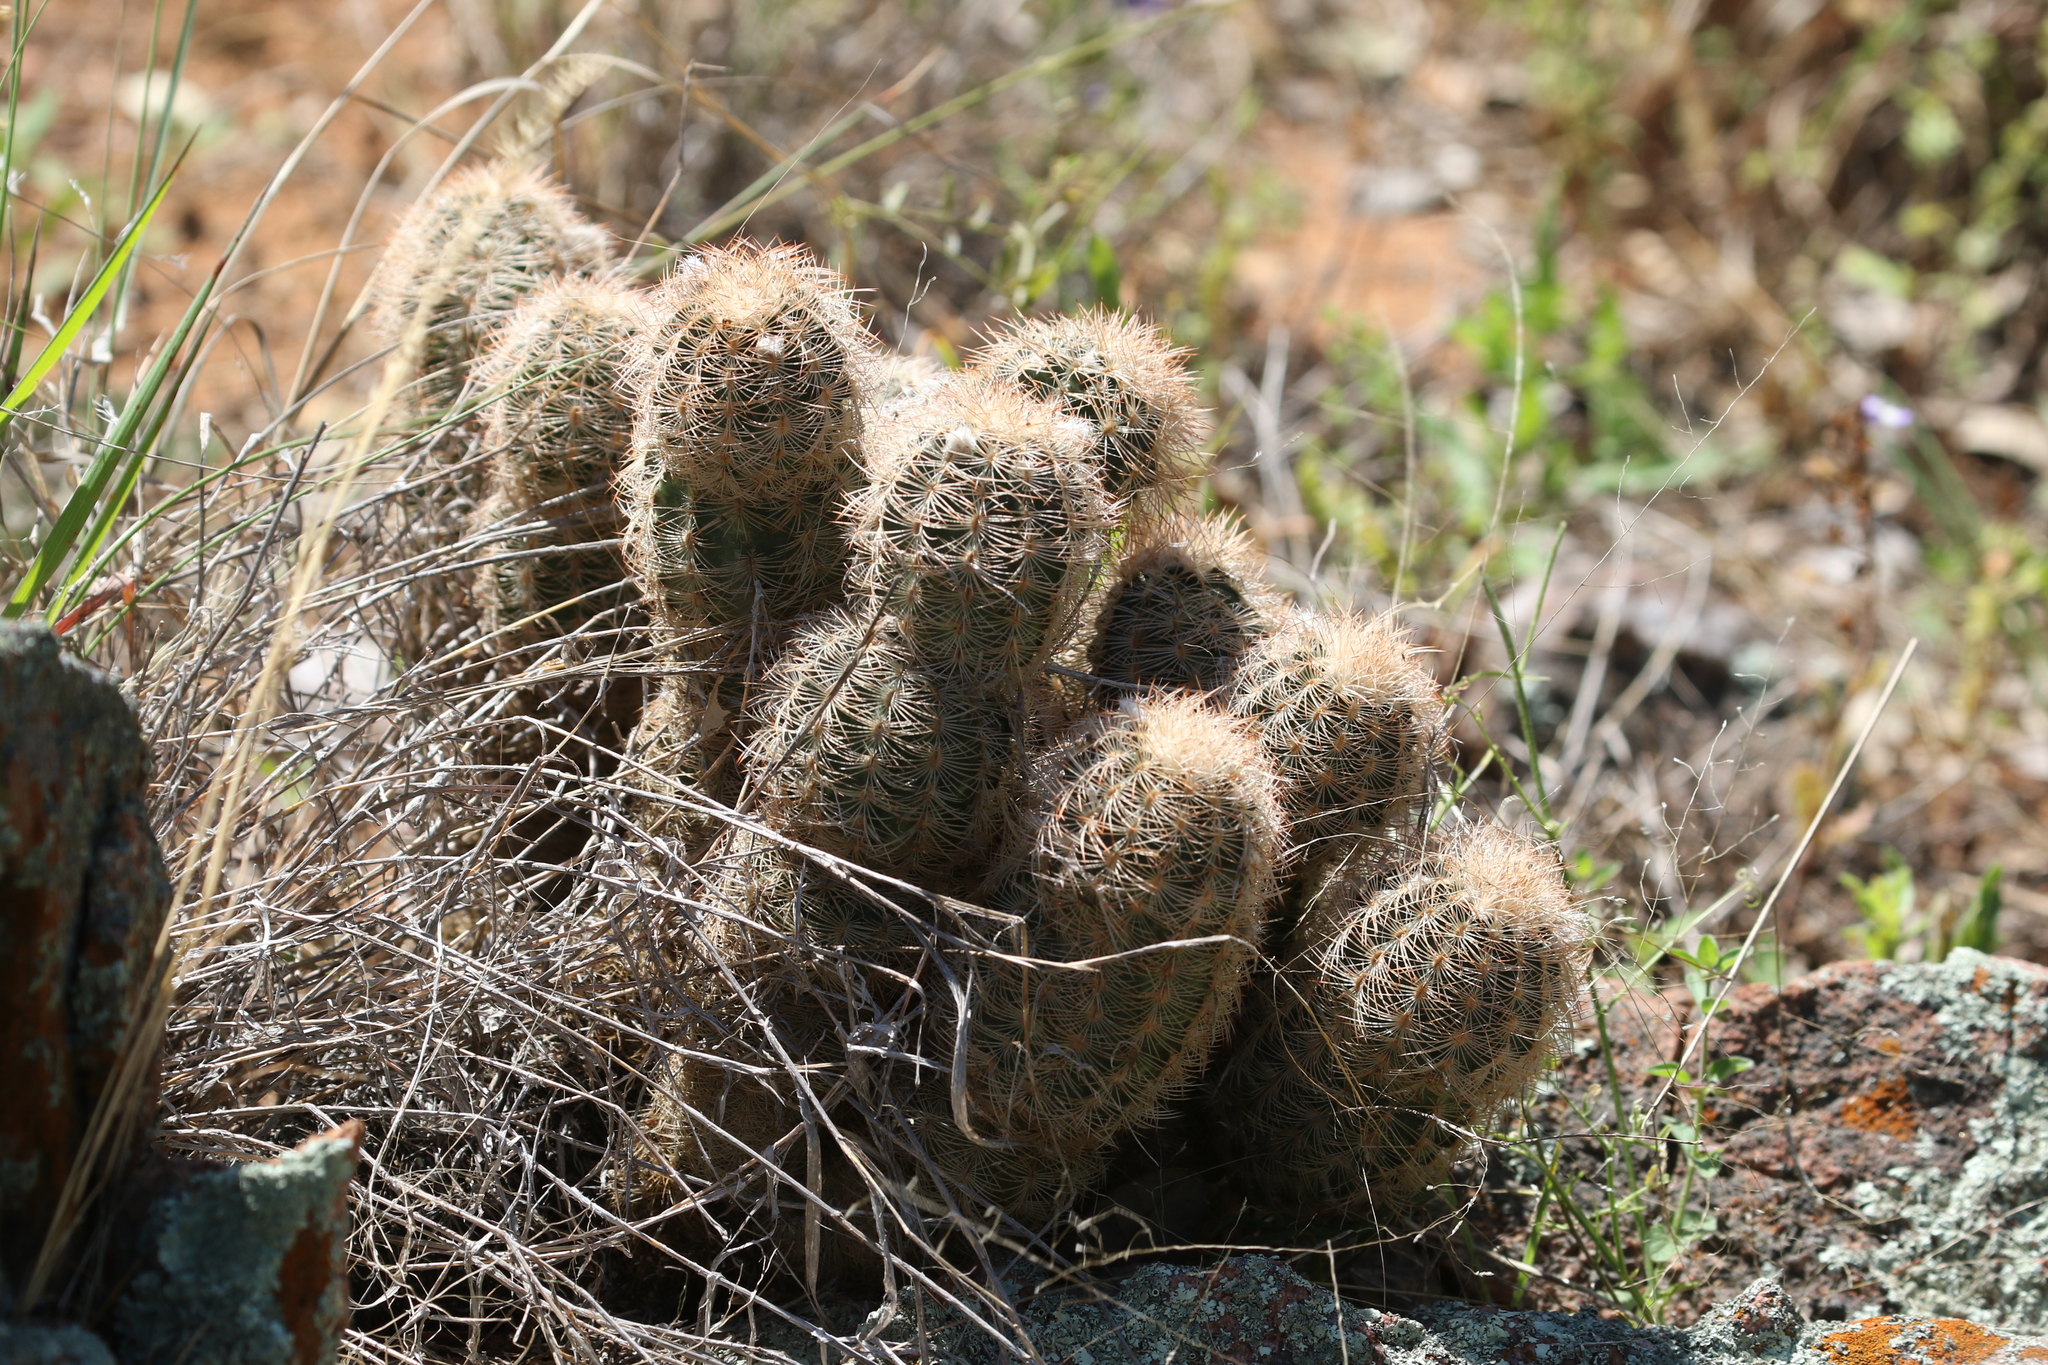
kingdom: Plantae
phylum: Tracheophyta
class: Magnoliopsida
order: Caryophyllales
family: Cactaceae
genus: Echinocereus
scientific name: Echinocereus reichenbachii
